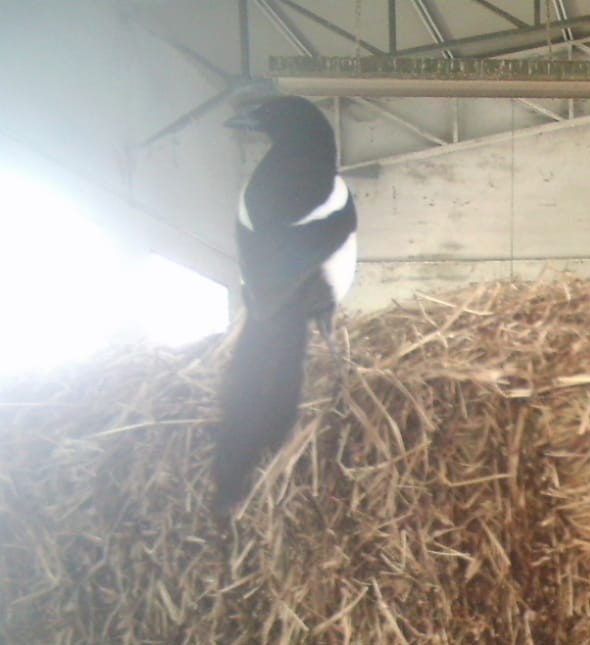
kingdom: Animalia
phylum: Chordata
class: Aves
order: Passeriformes
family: Corvidae
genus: Pica
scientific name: Pica pica
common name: Eurasian magpie
